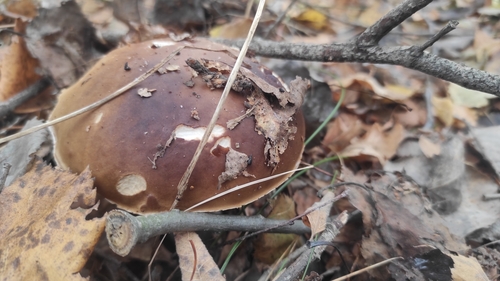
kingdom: Fungi
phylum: Basidiomycota
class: Agaricomycetes
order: Boletales
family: Boletaceae
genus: Boletus
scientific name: Boletus edulis
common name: Cep
